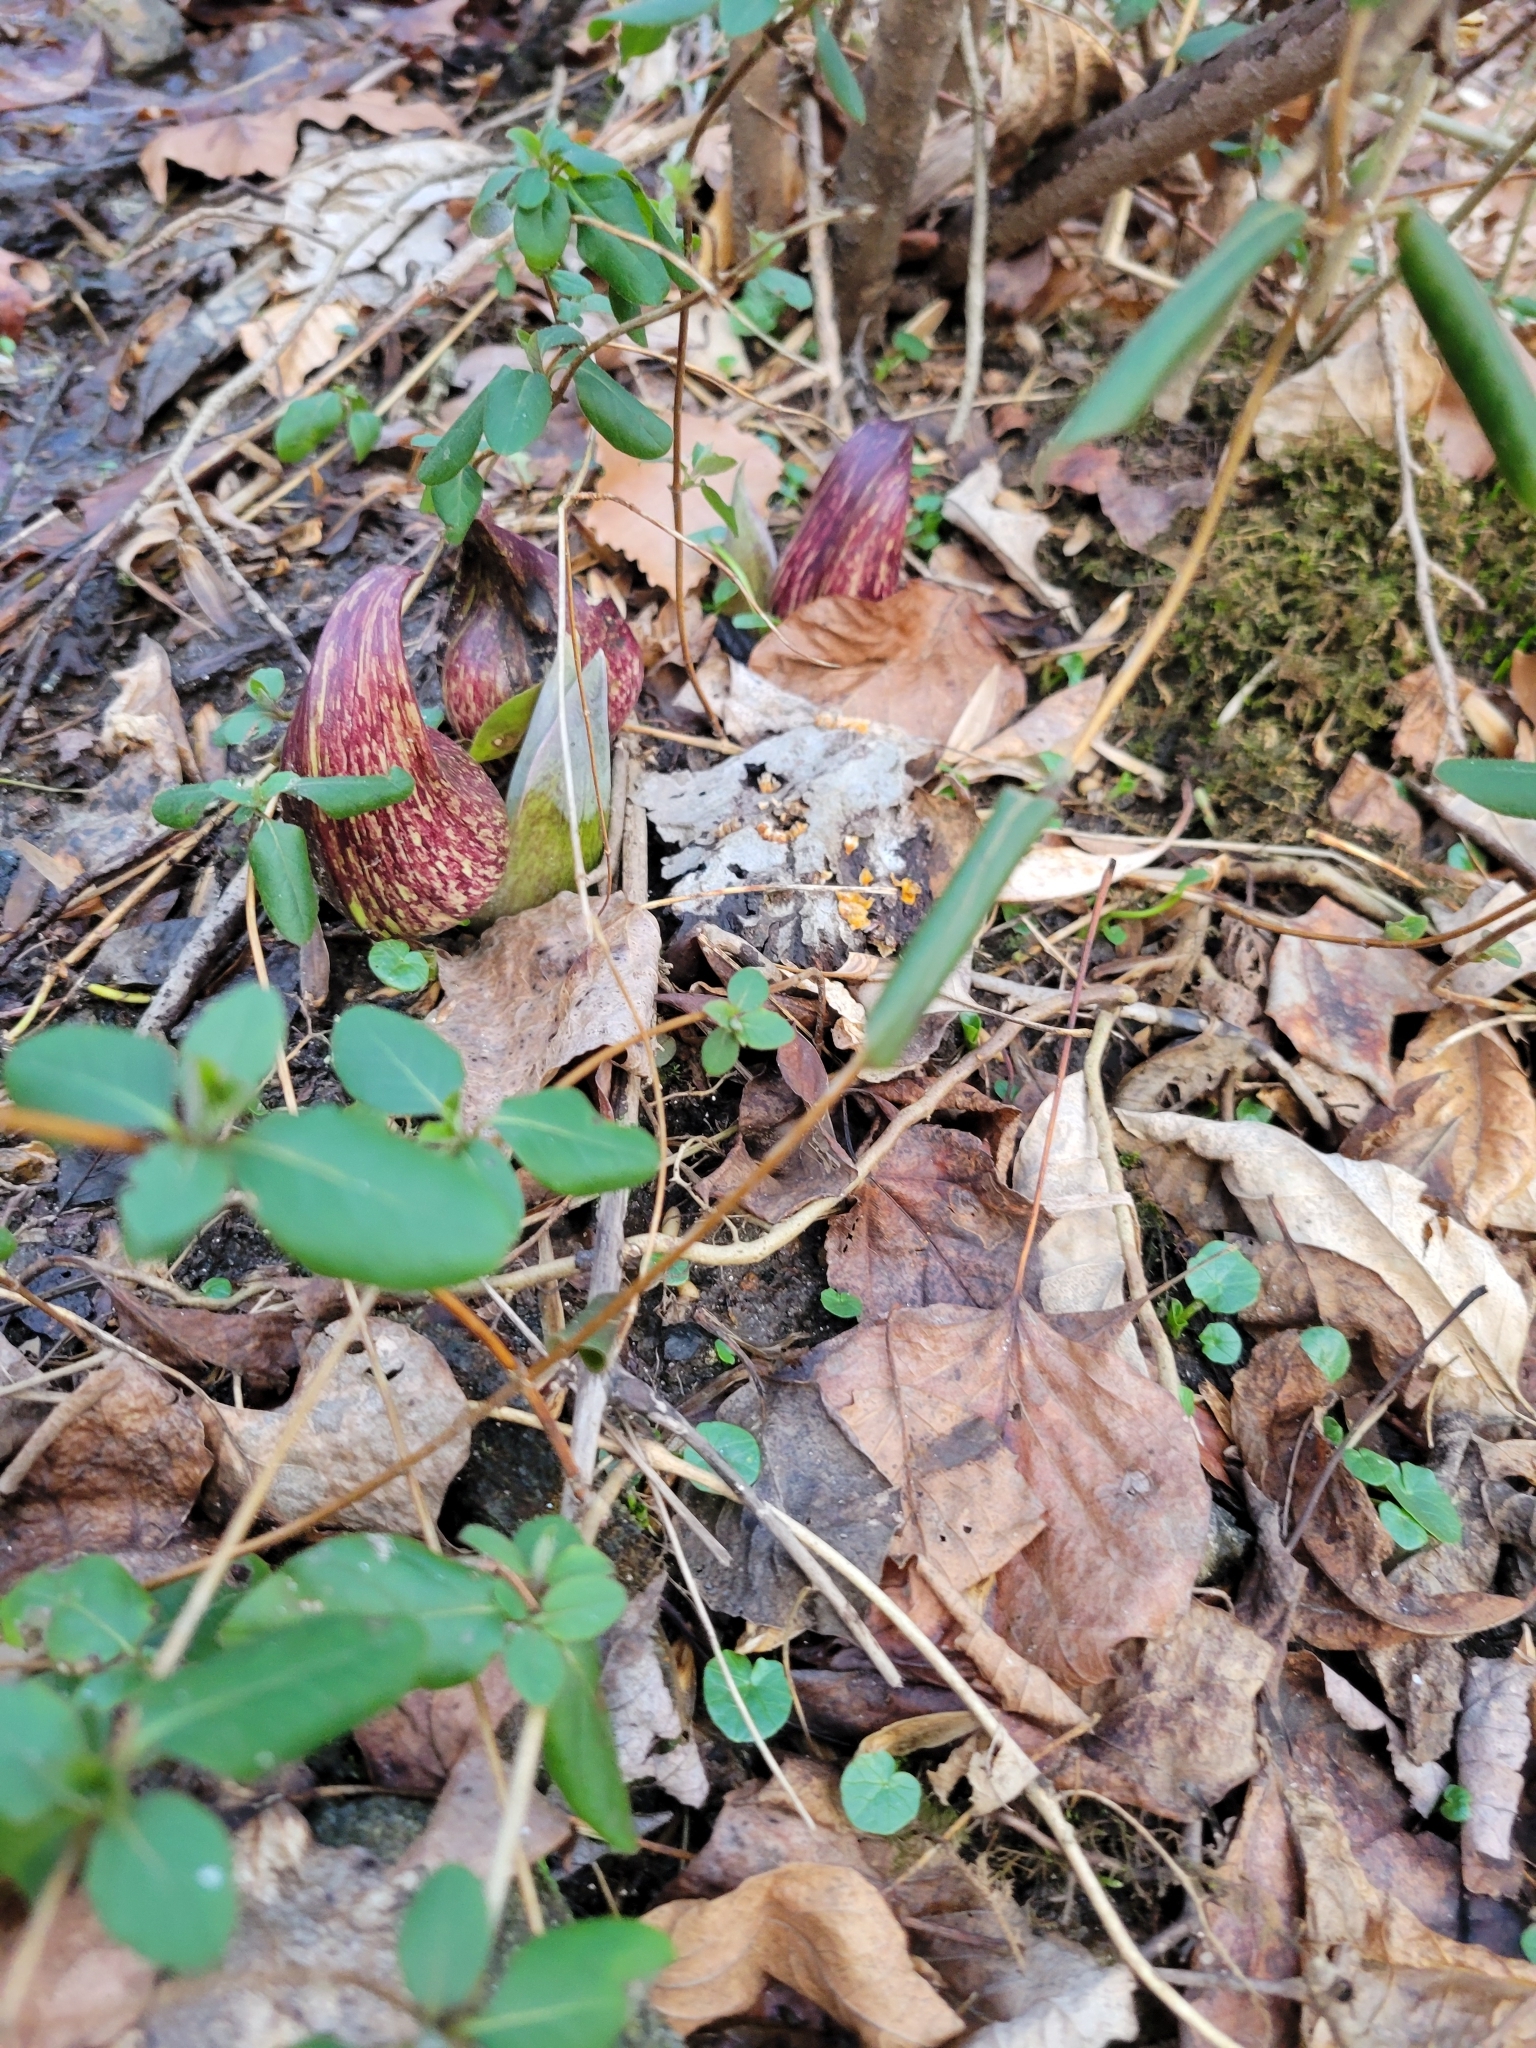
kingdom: Plantae
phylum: Tracheophyta
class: Liliopsida
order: Alismatales
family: Araceae
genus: Symplocarpus
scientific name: Symplocarpus foetidus
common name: Eastern skunk cabbage
